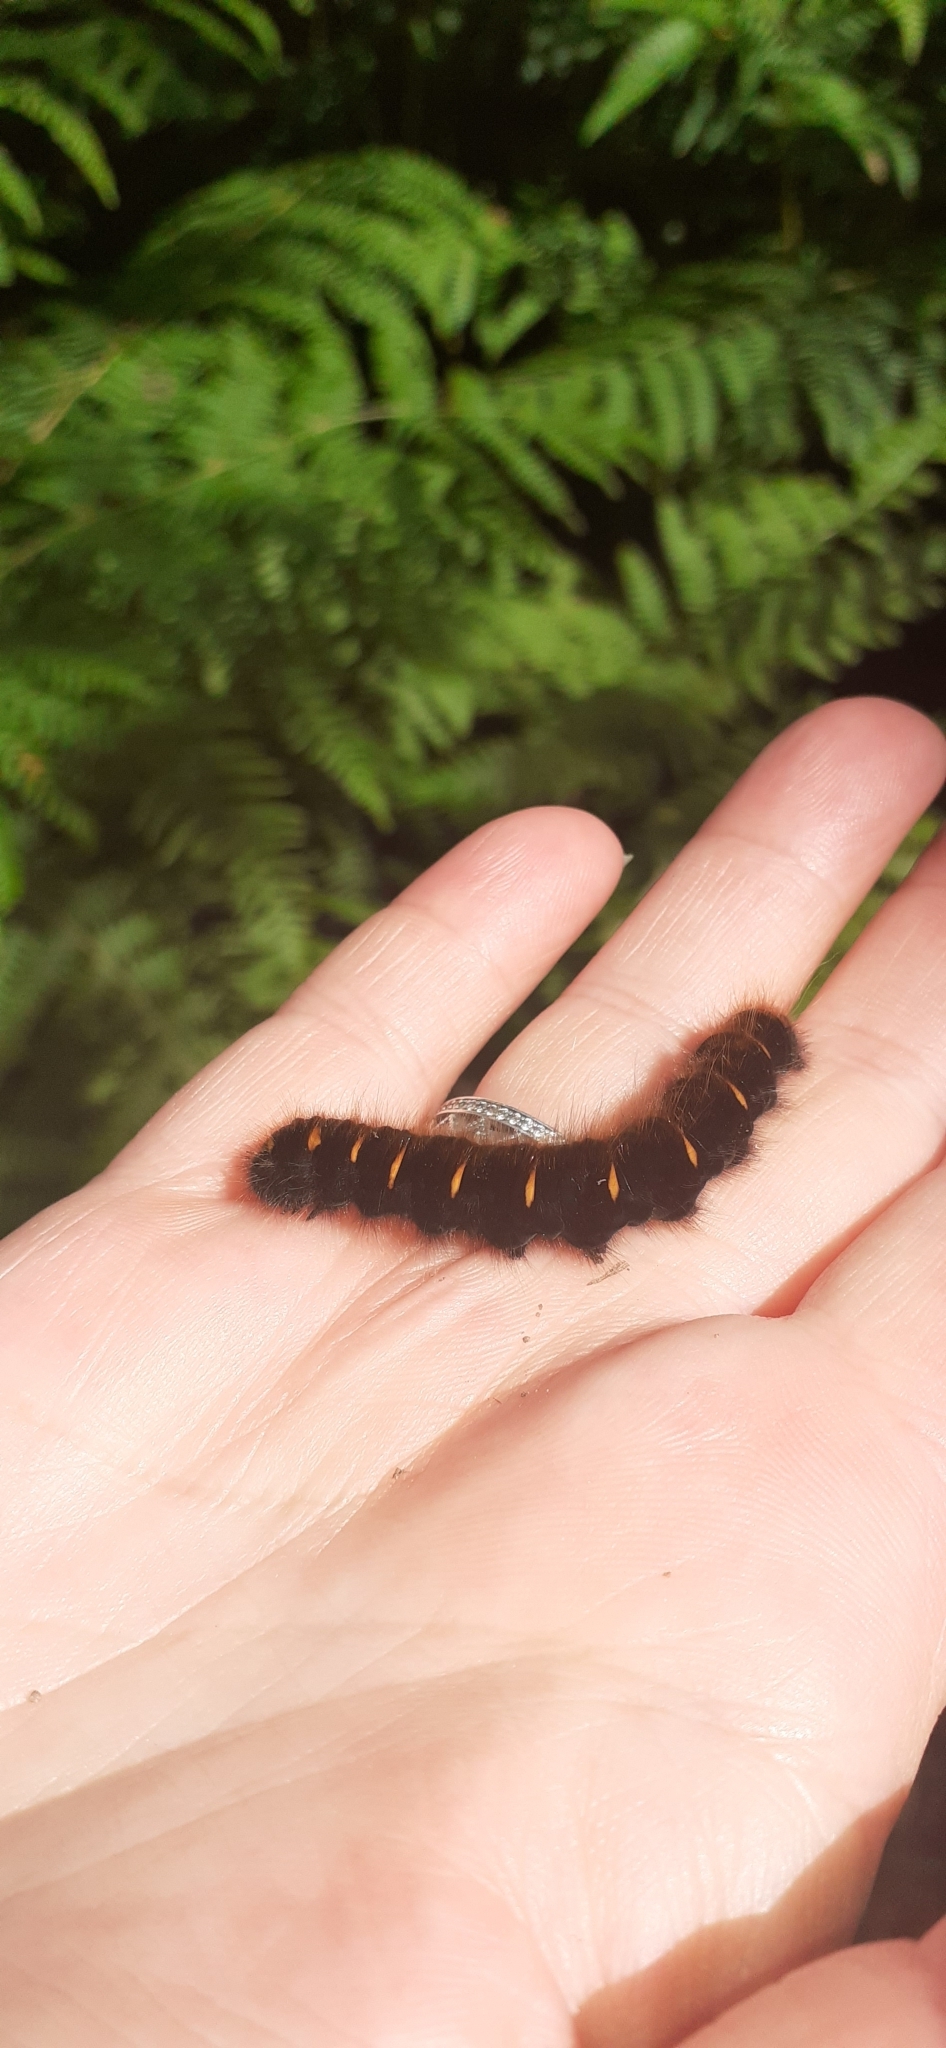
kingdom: Animalia
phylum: Arthropoda
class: Insecta
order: Lepidoptera
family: Lasiocampidae
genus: Macrothylacia
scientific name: Macrothylacia rubi
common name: Fox moth
